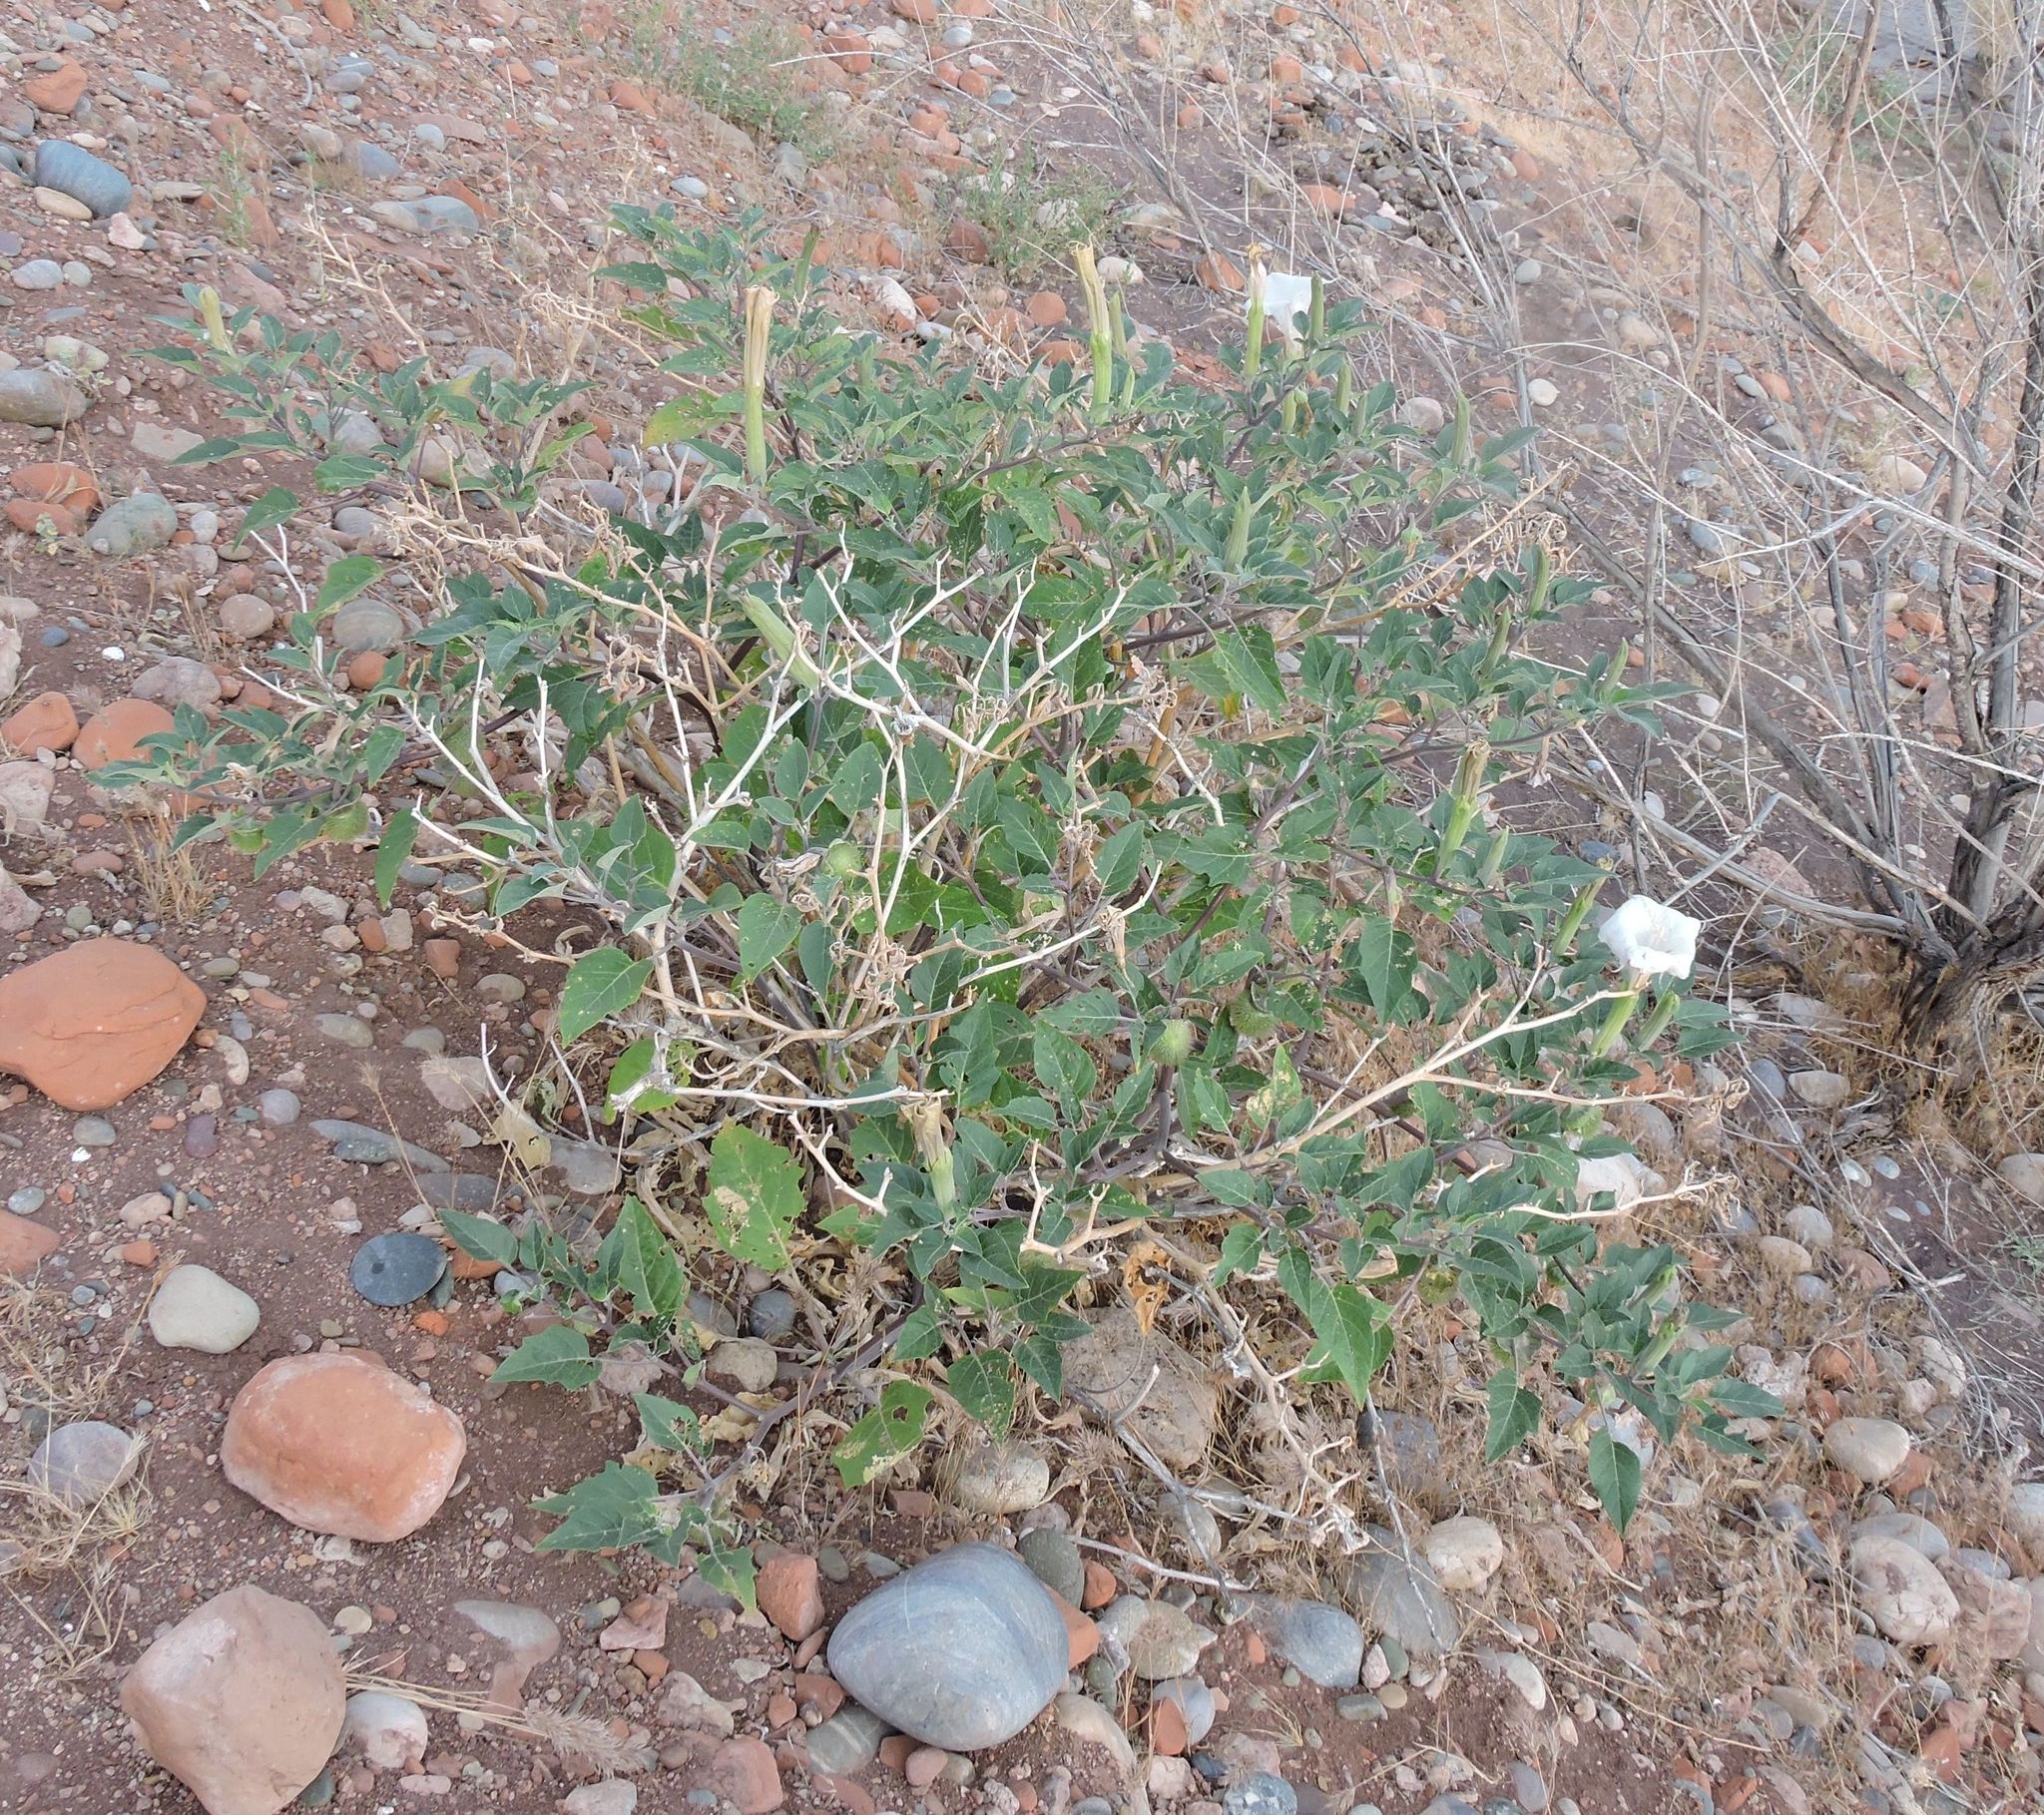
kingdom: Plantae
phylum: Tracheophyta
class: Magnoliopsida
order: Solanales
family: Solanaceae
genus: Datura
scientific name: Datura wrightii
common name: Sacred thorn-apple
